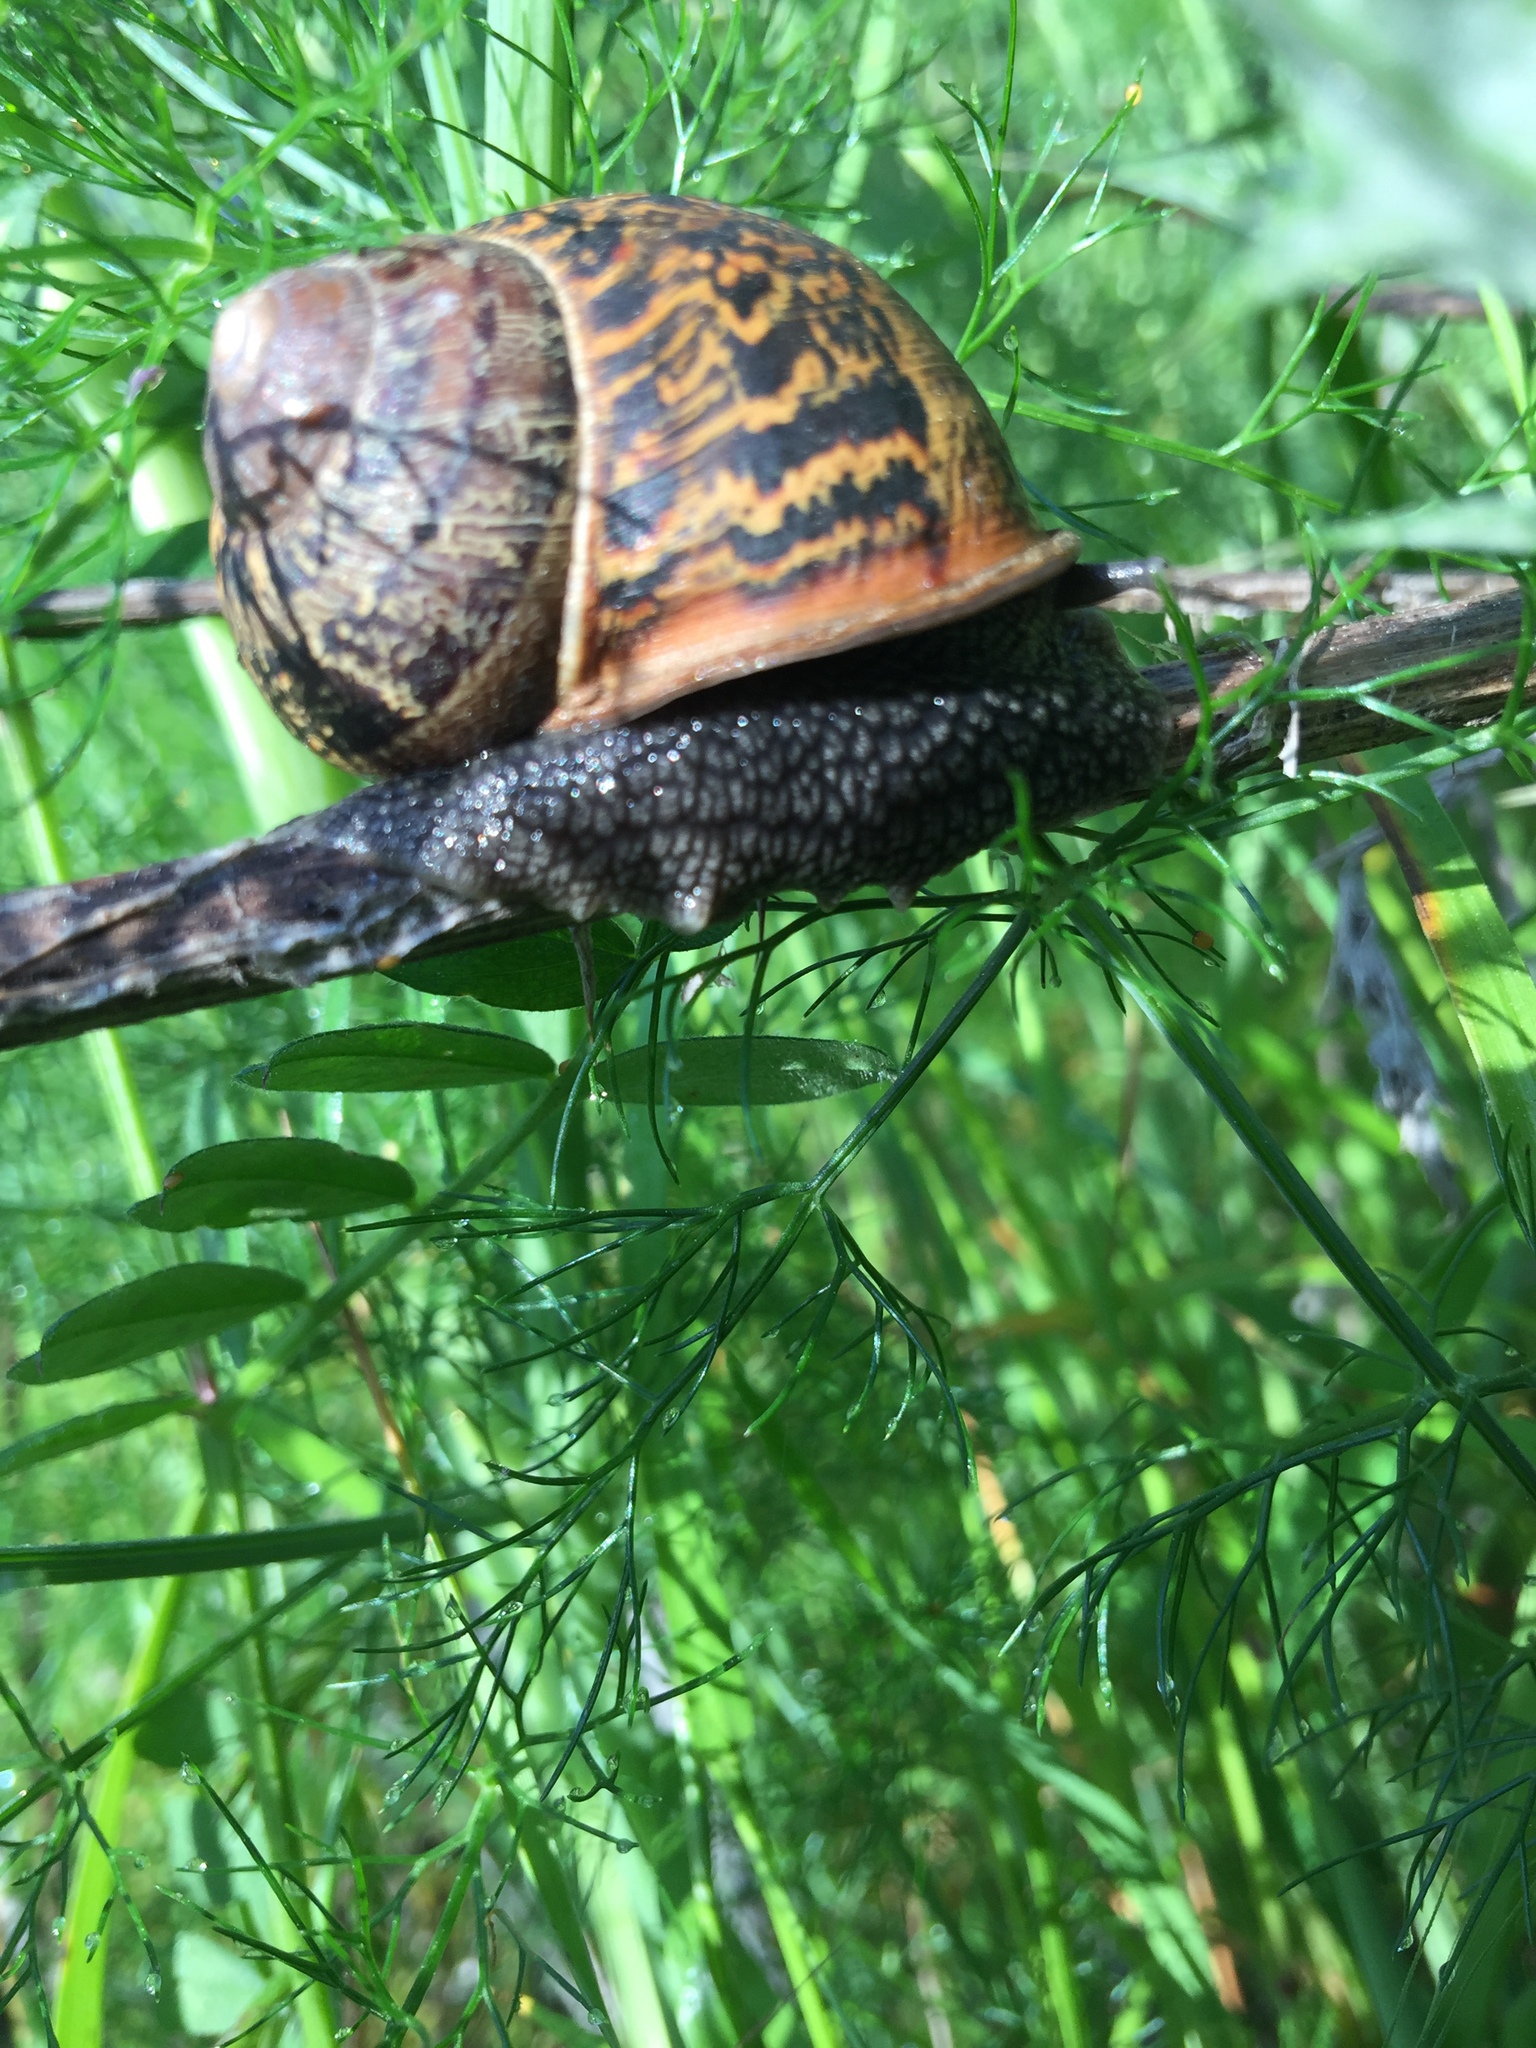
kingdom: Animalia
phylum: Mollusca
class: Gastropoda
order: Stylommatophora
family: Helicidae
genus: Cornu
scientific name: Cornu aspersum
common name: Brown garden snail
